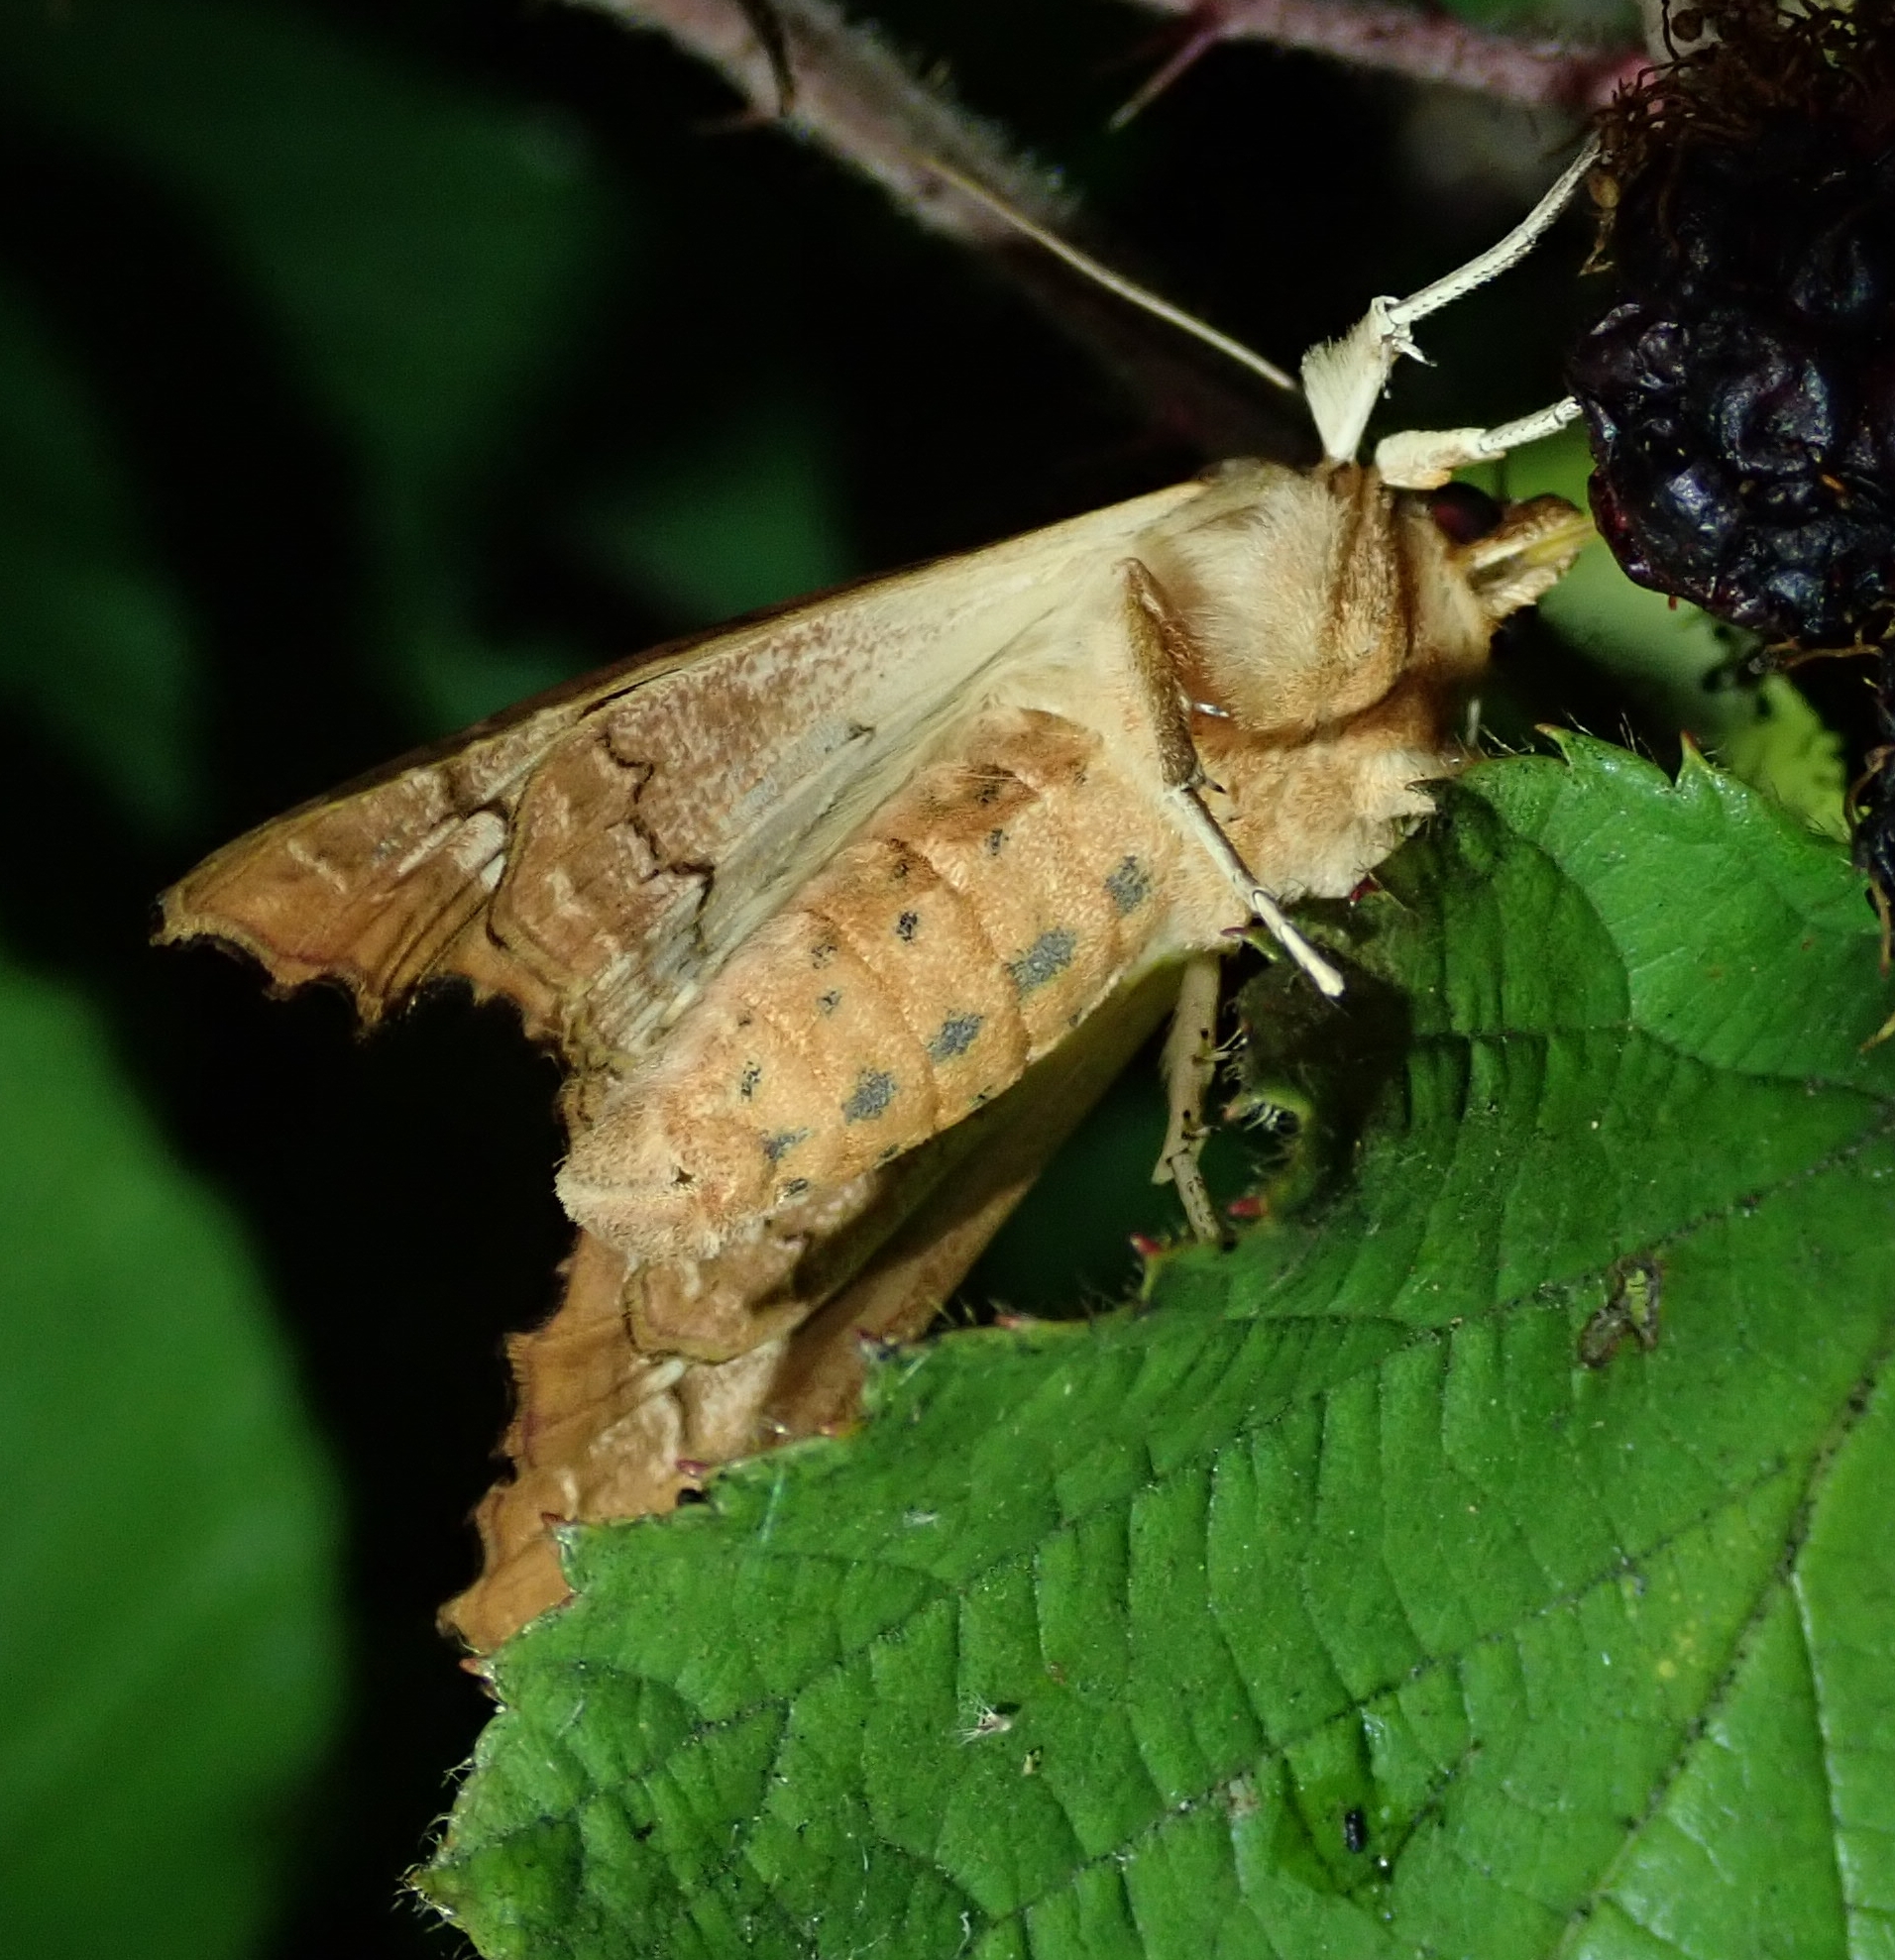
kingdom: Animalia
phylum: Arthropoda
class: Insecta
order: Lepidoptera
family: Noctuidae
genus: Phlogophora
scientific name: Phlogophora meticulosa
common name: Angle shades
